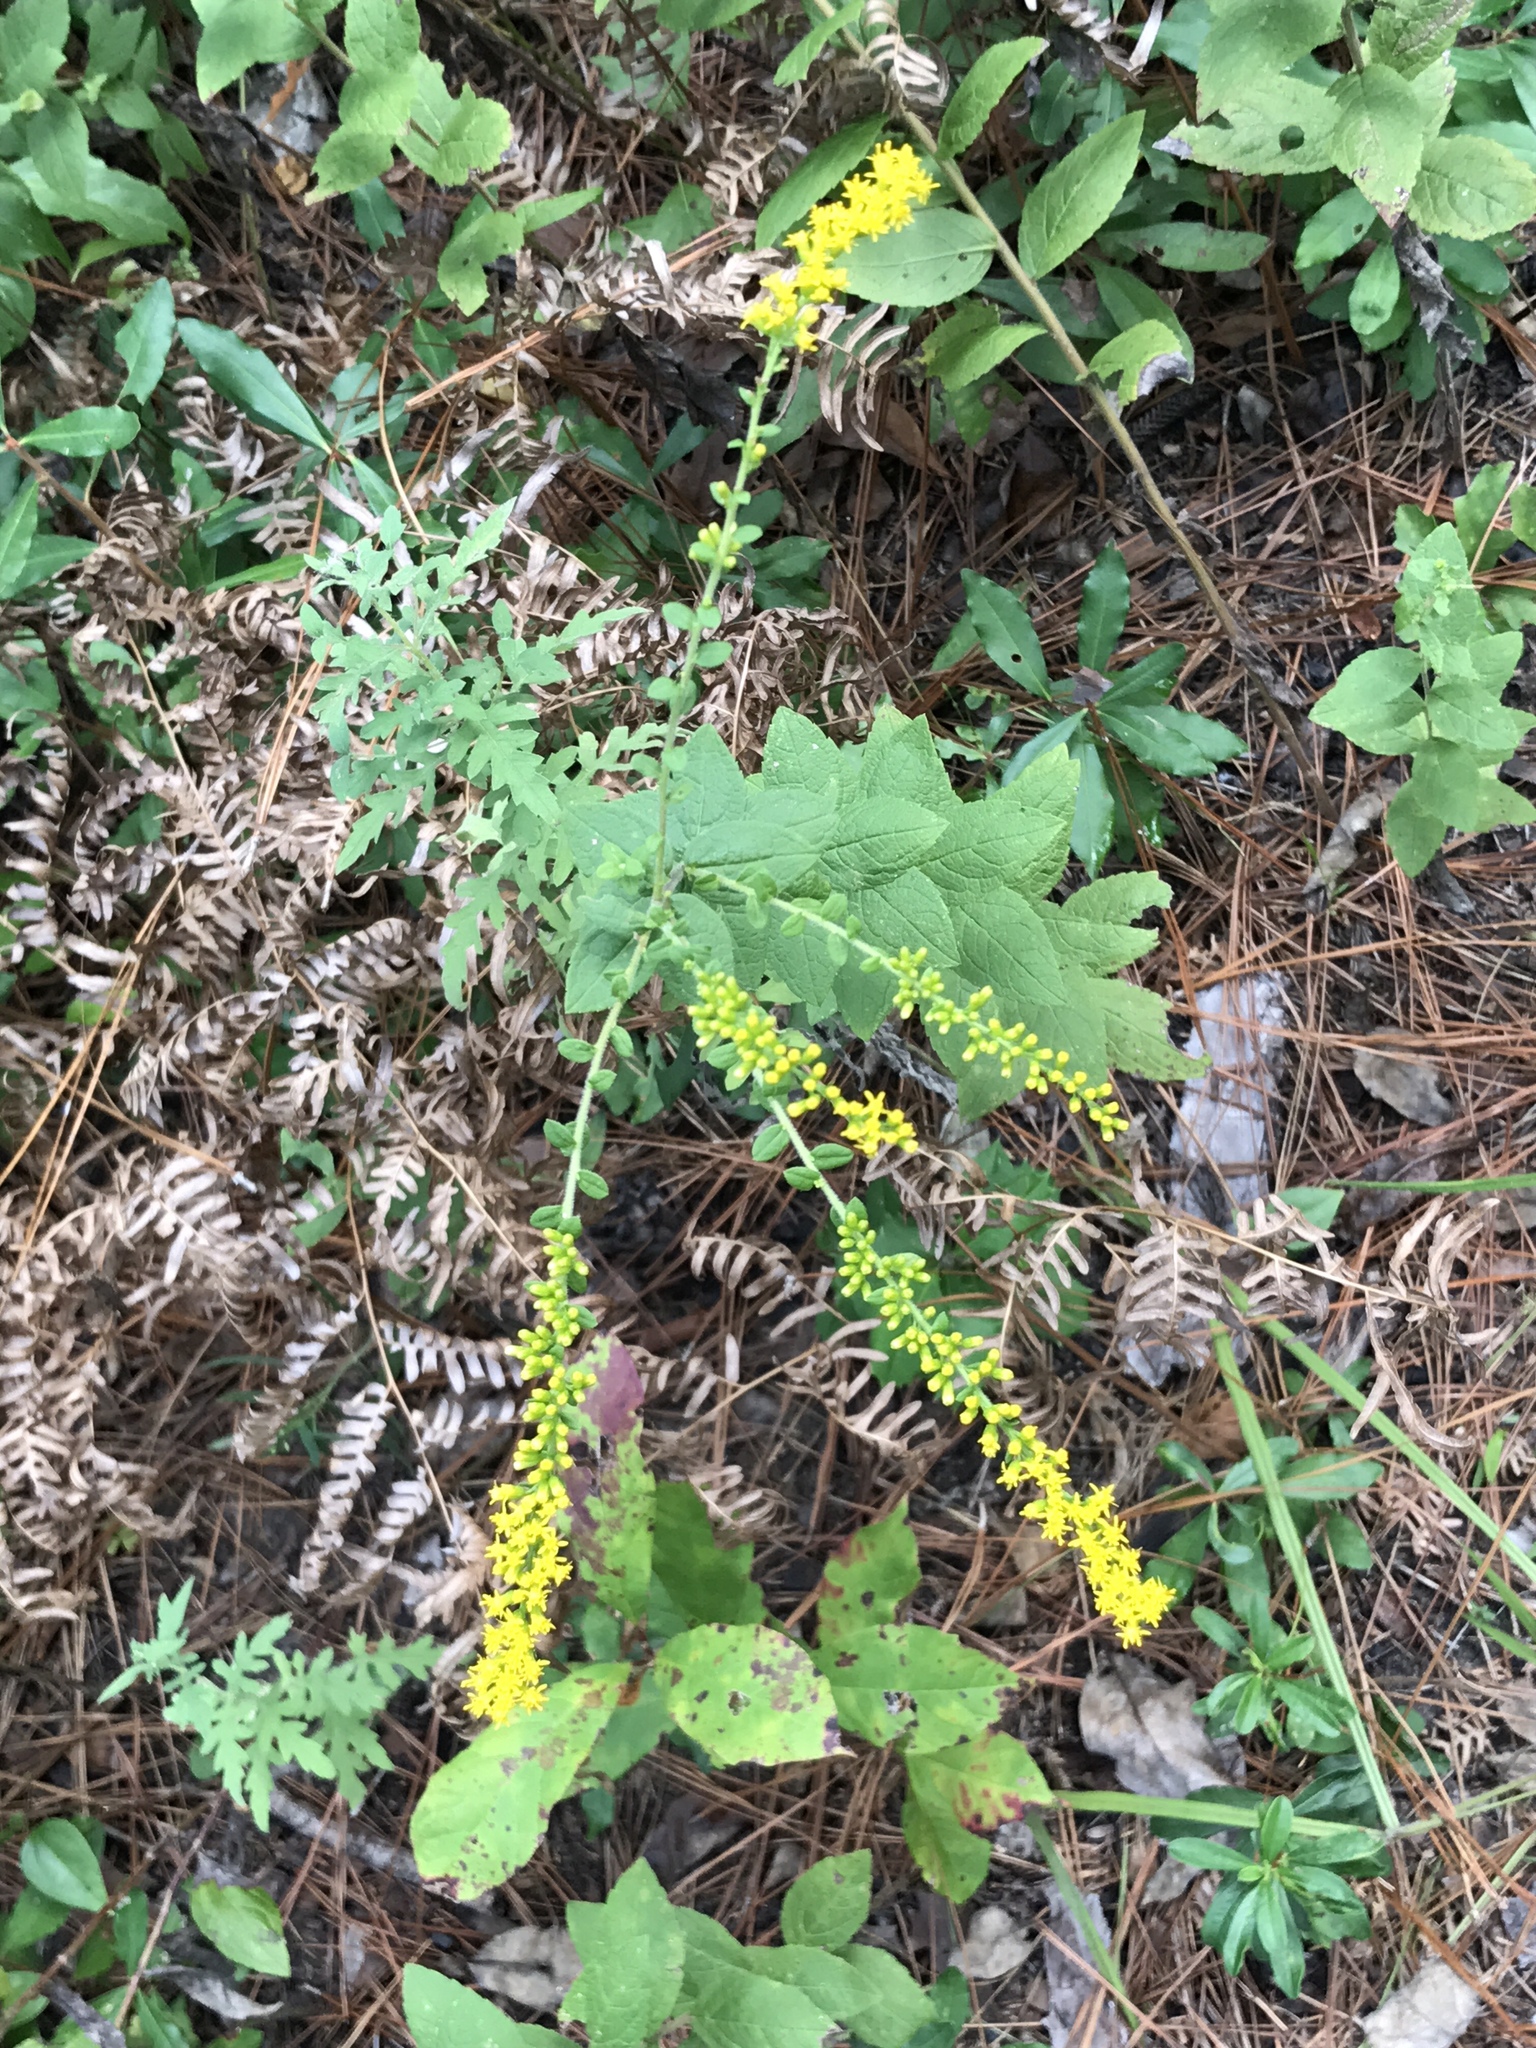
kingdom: Plantae
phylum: Tracheophyta
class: Magnoliopsida
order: Asterales
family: Asteraceae
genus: Solidago
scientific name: Solidago rugosa
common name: Rough-stemmed goldenrod
